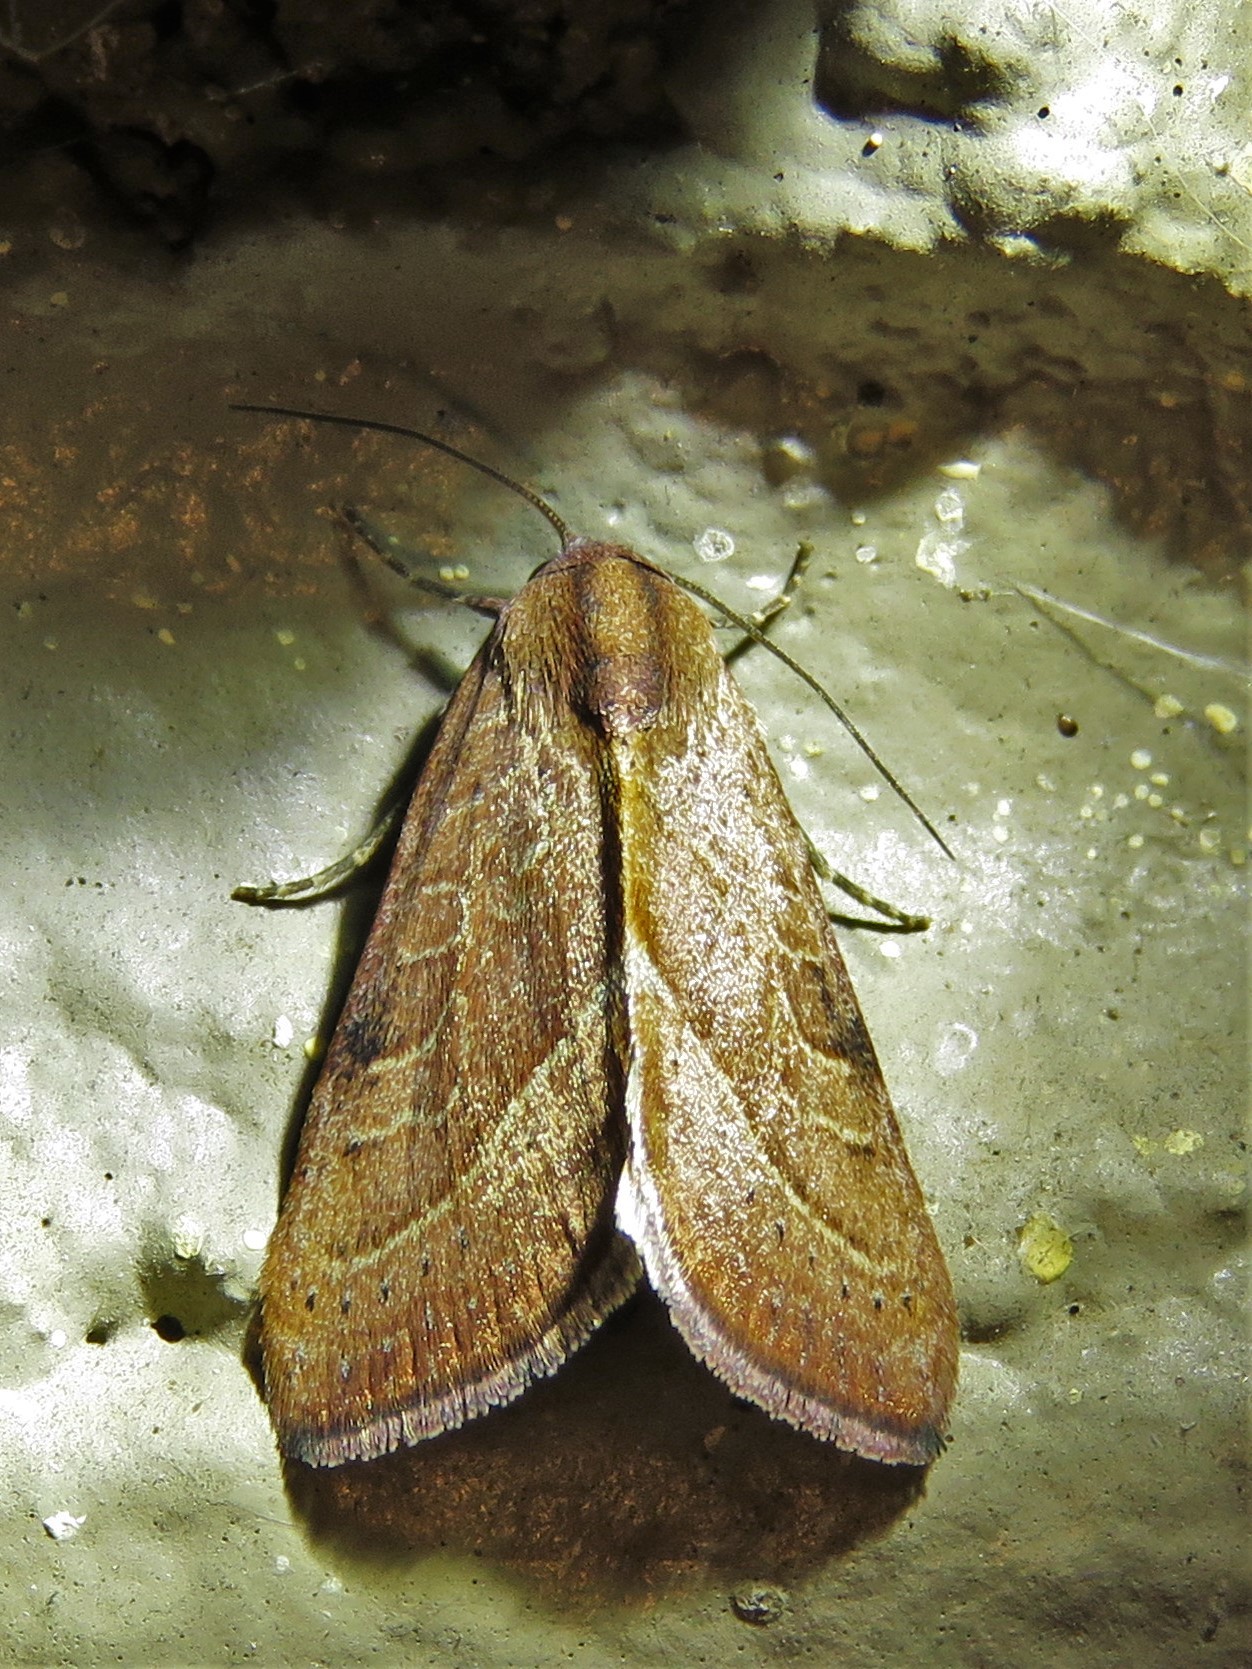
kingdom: Animalia
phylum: Arthropoda
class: Insecta
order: Lepidoptera
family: Noctuidae
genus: Galgula
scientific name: Galgula partita
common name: Wedgeling
